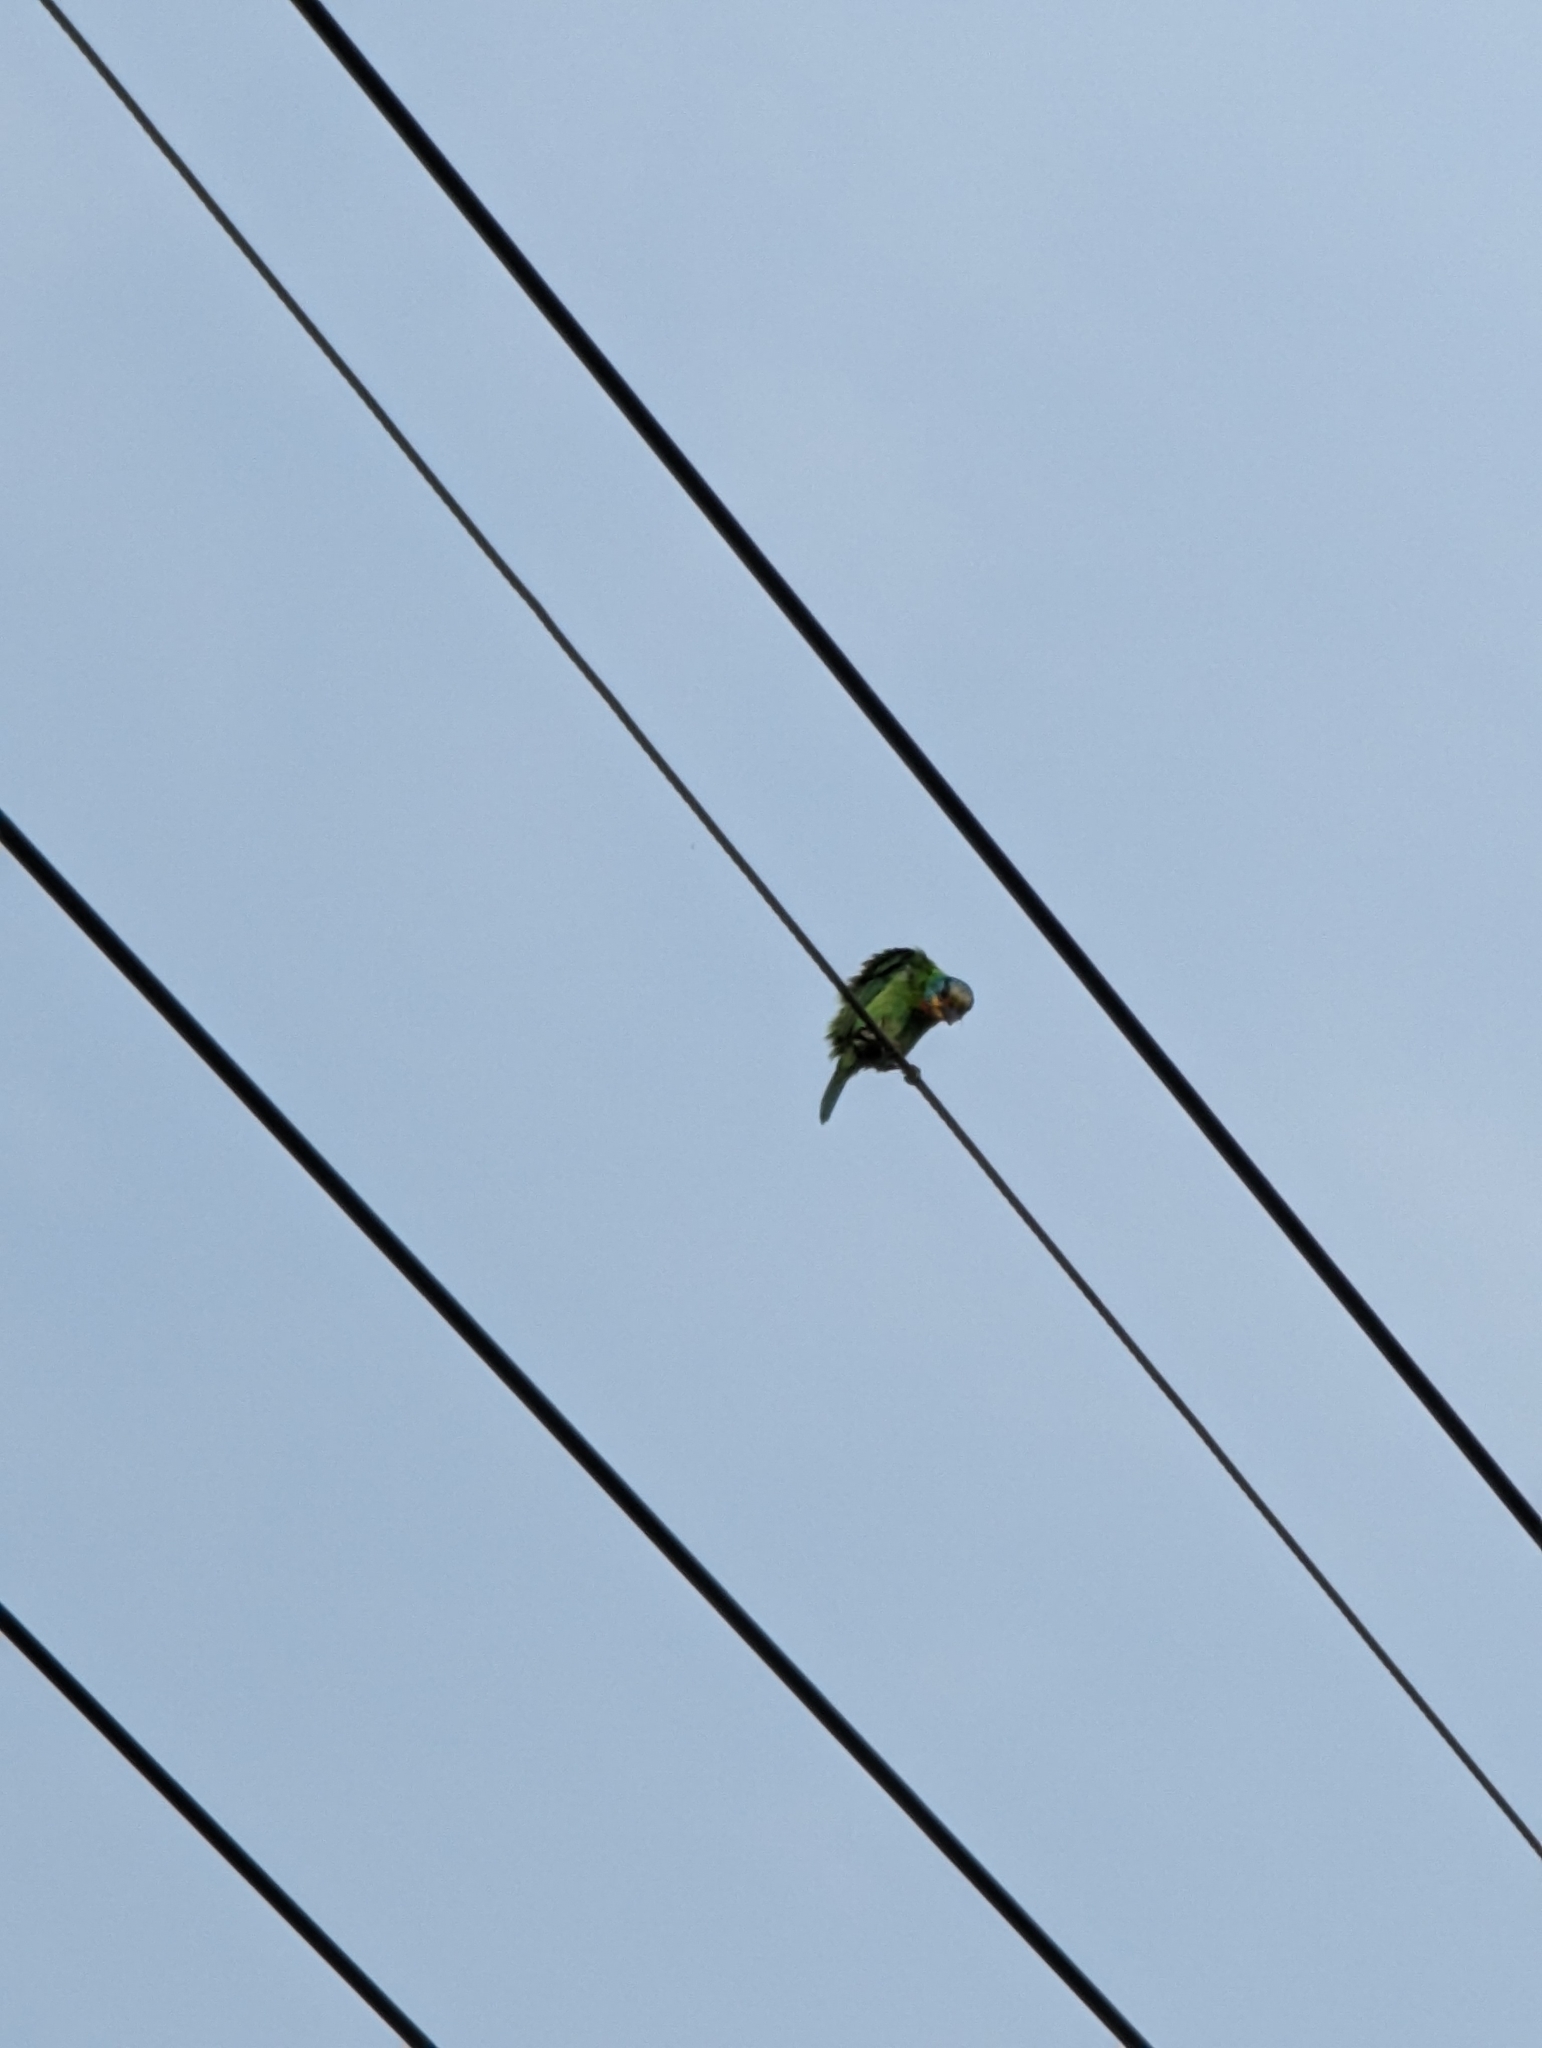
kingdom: Animalia
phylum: Chordata
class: Aves
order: Piciformes
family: Megalaimidae
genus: Psilopogon
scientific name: Psilopogon nuchalis
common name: Taiwan barbet
